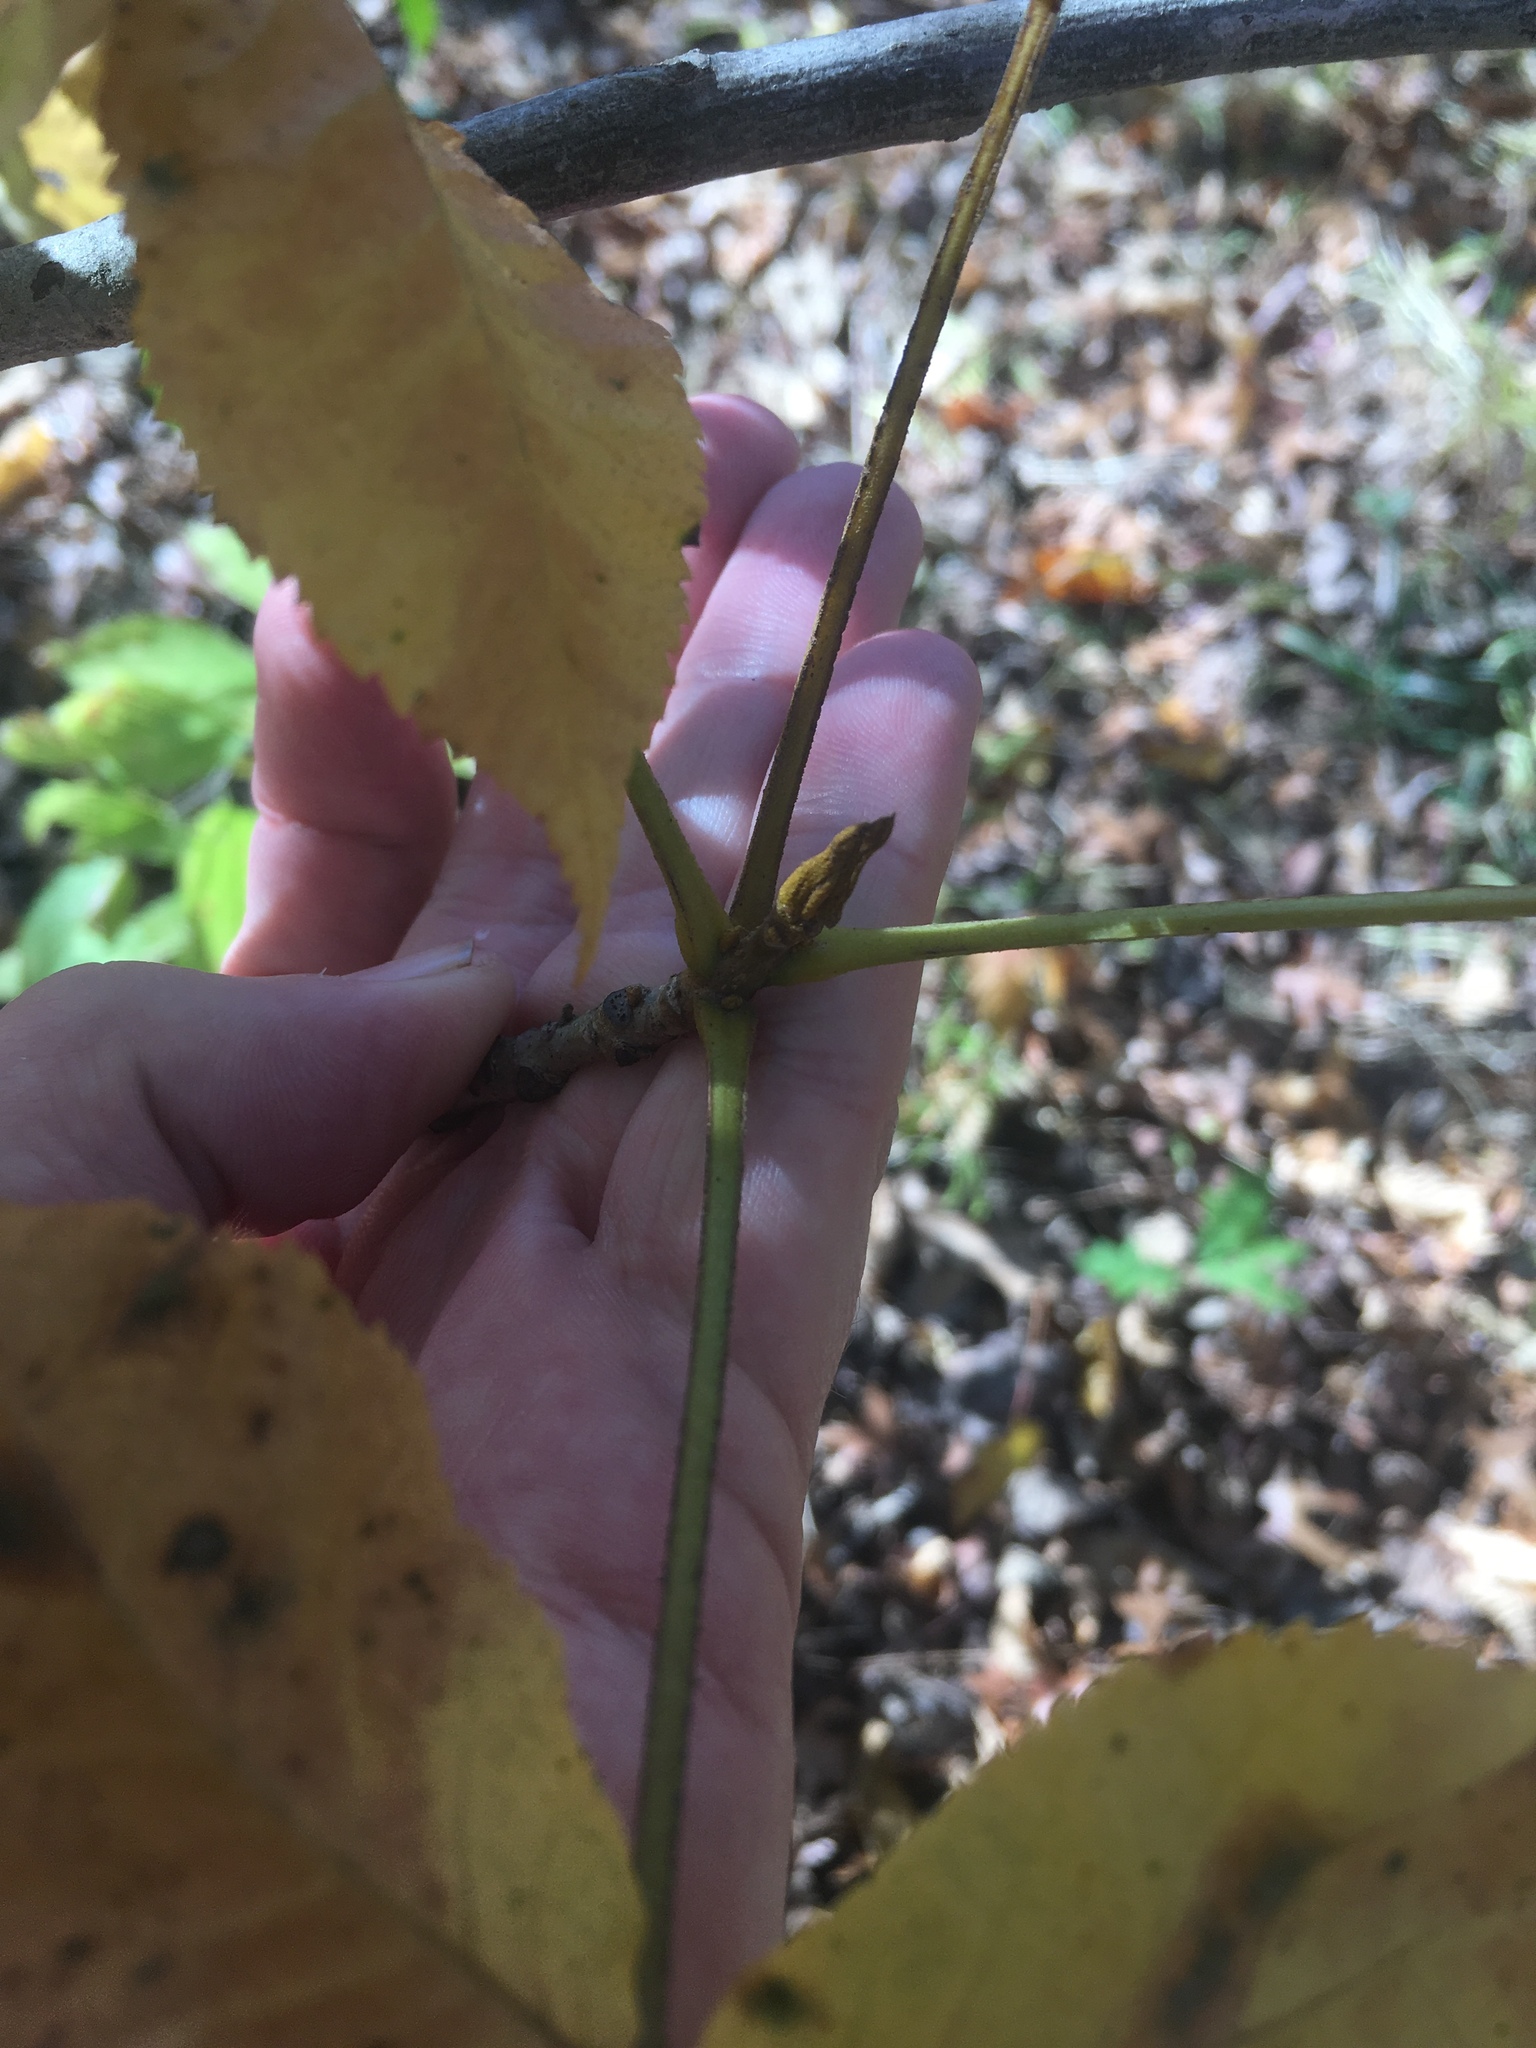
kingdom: Plantae
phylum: Tracheophyta
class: Magnoliopsida
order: Fagales
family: Juglandaceae
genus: Carya
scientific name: Carya cordiformis
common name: Bitternut hickory
